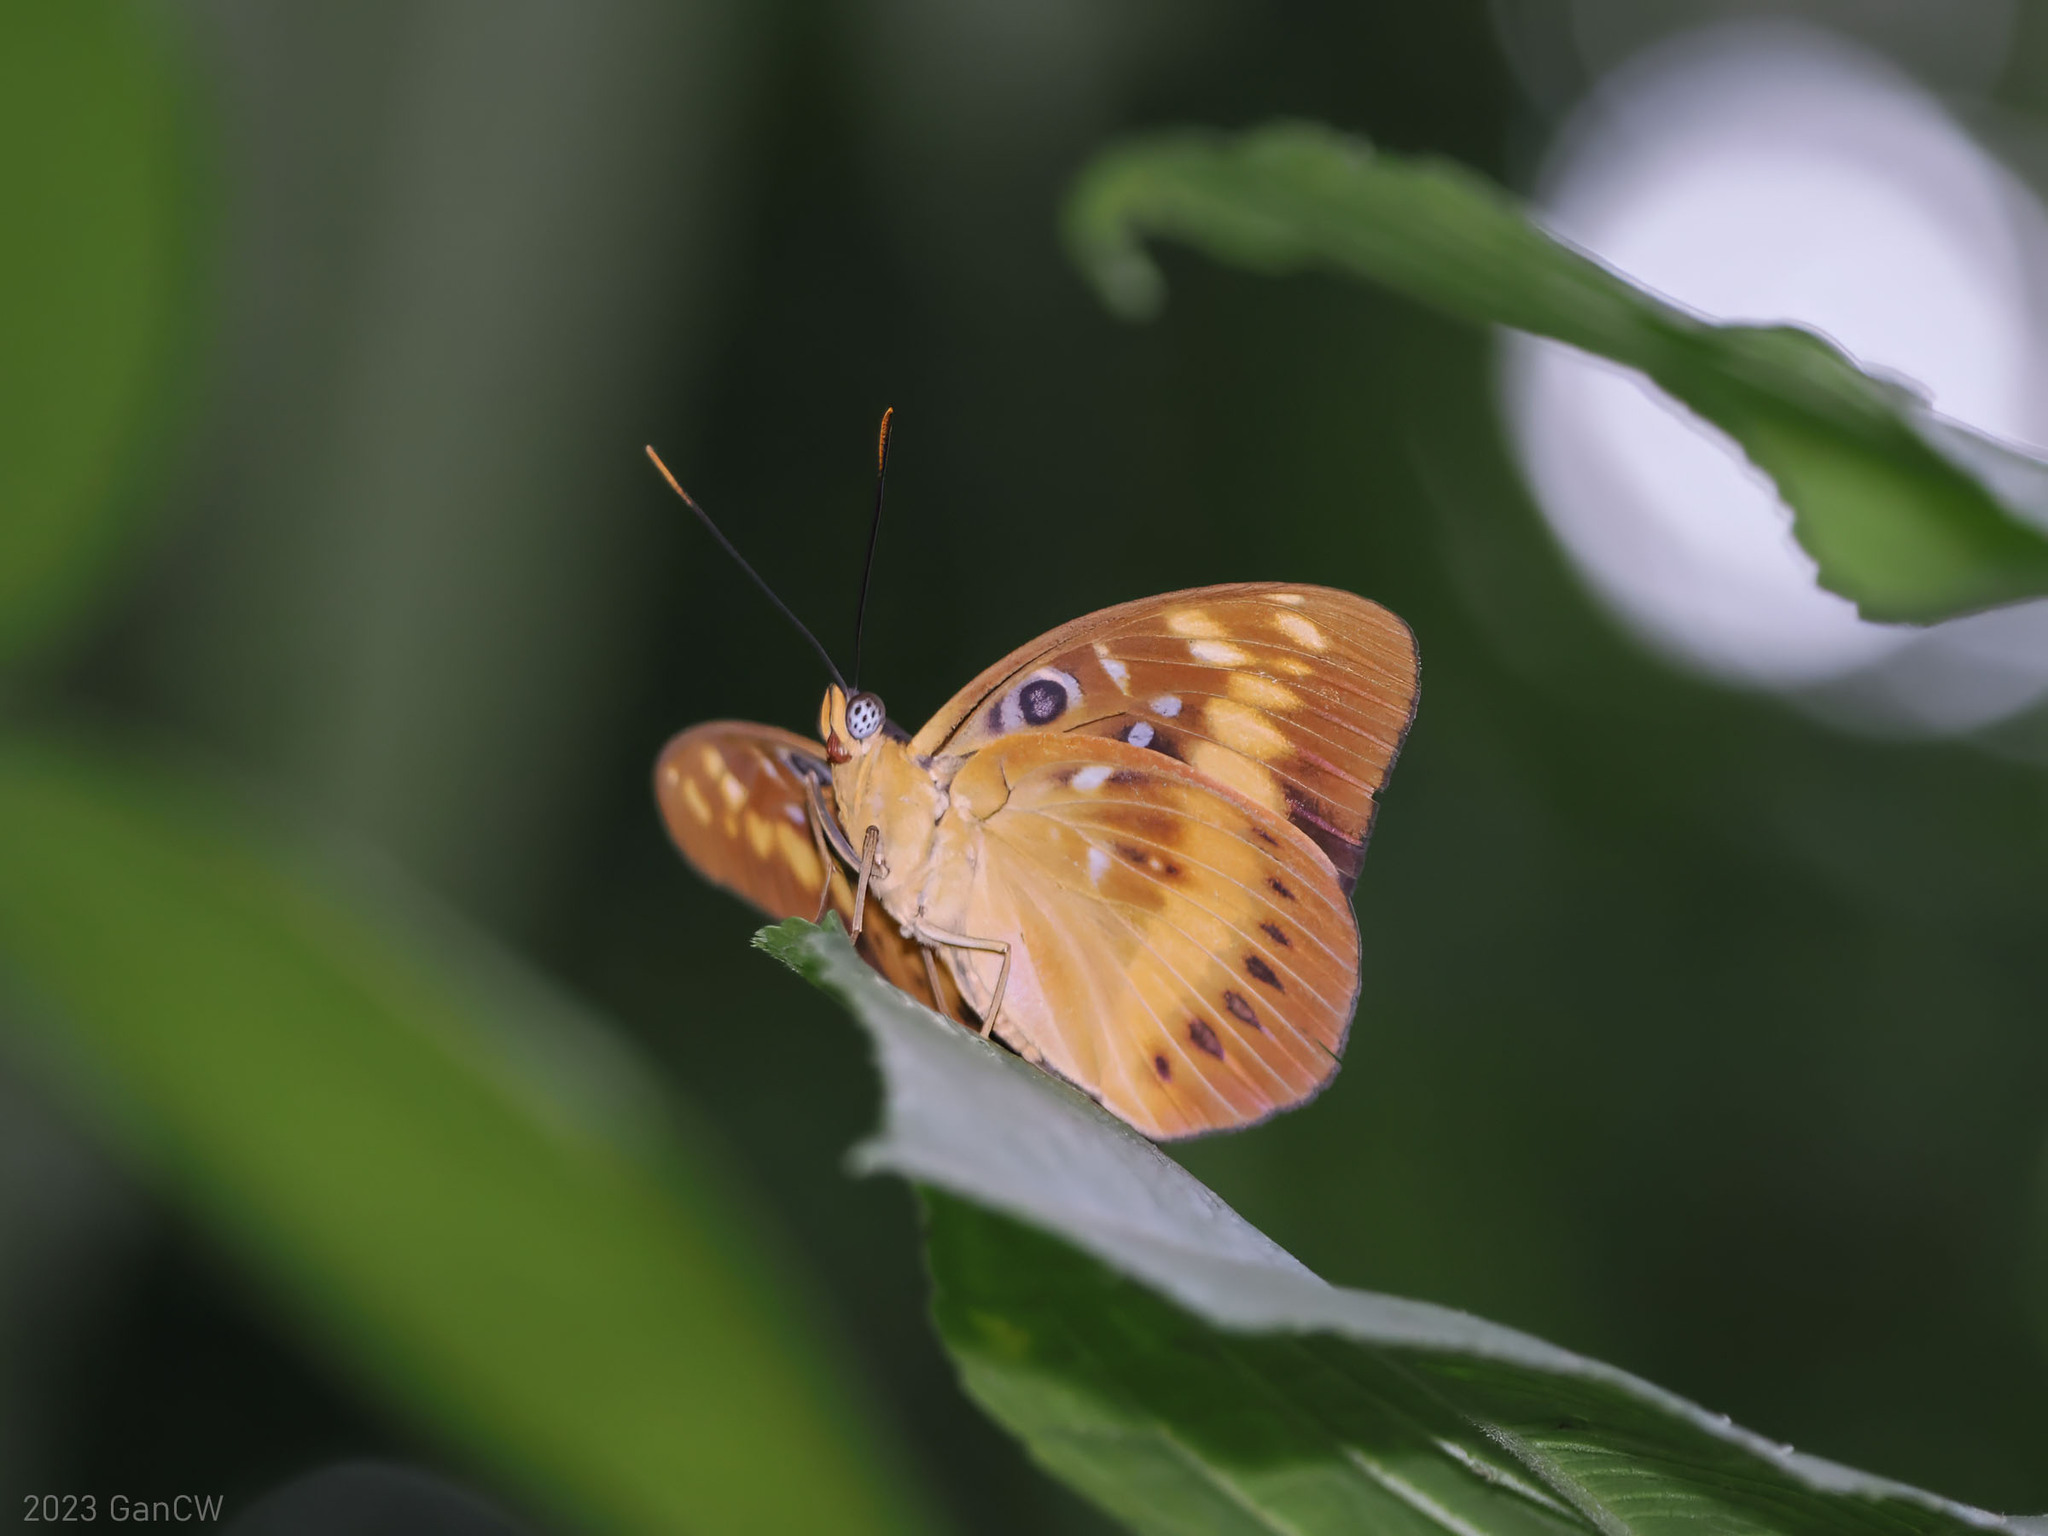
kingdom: Animalia
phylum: Arthropoda
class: Insecta
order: Lepidoptera
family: Nymphalidae
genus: Lexias
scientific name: Lexias aeropa
